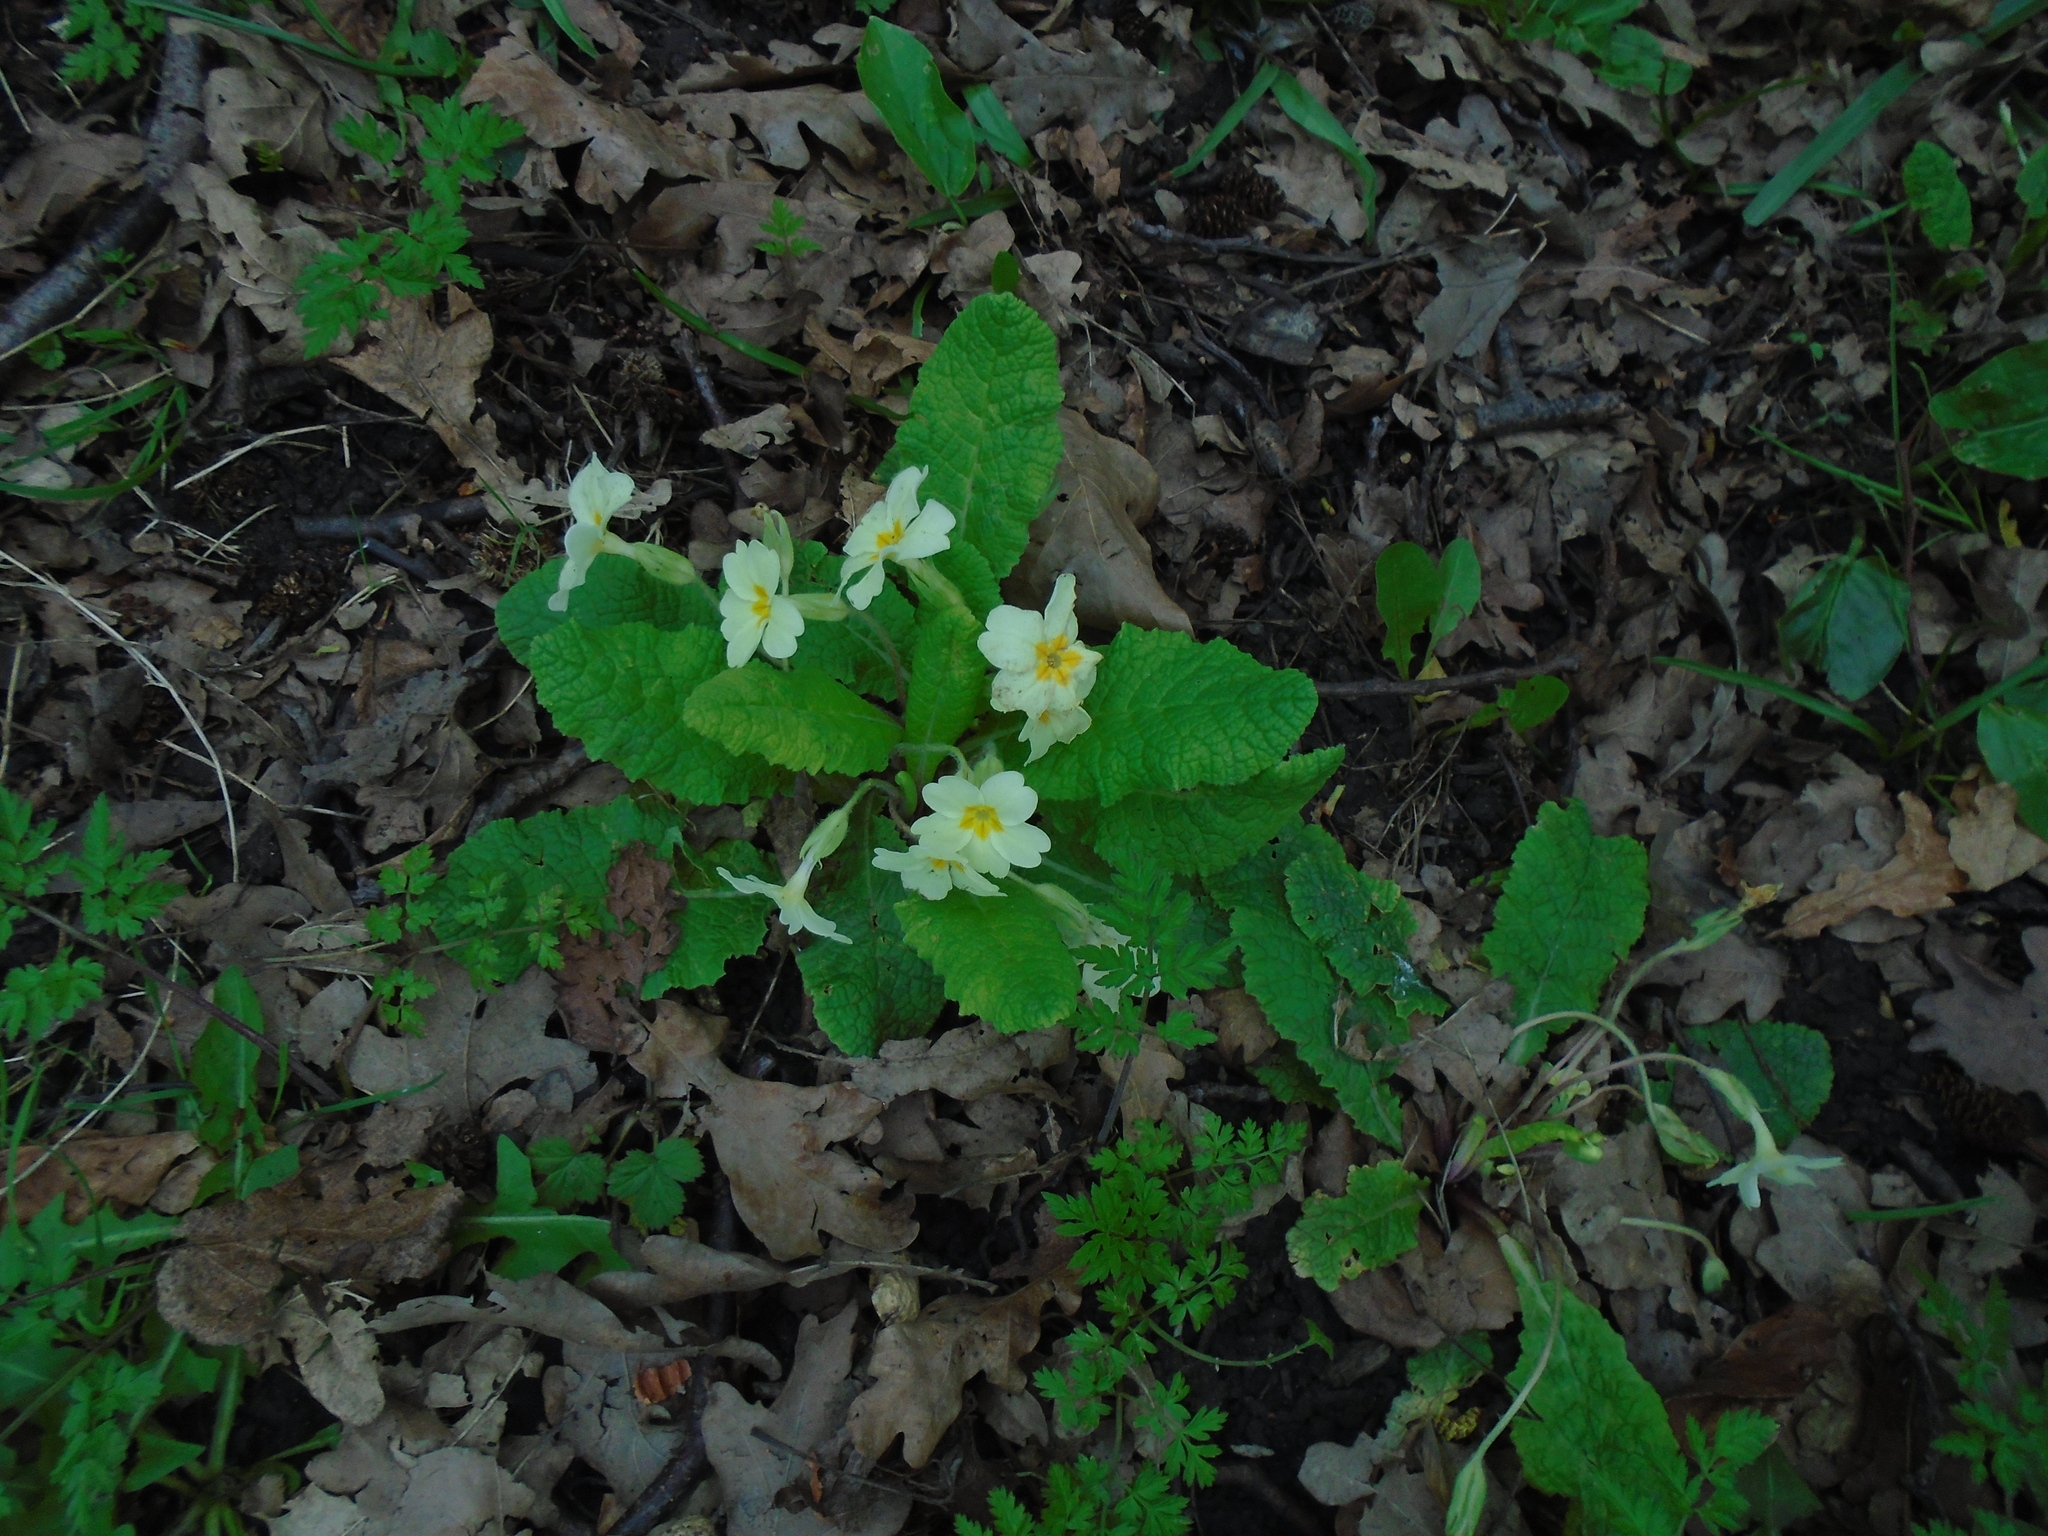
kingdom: Plantae
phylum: Tracheophyta
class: Magnoliopsida
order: Ericales
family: Primulaceae
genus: Primula
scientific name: Primula vulgaris
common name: Primrose
